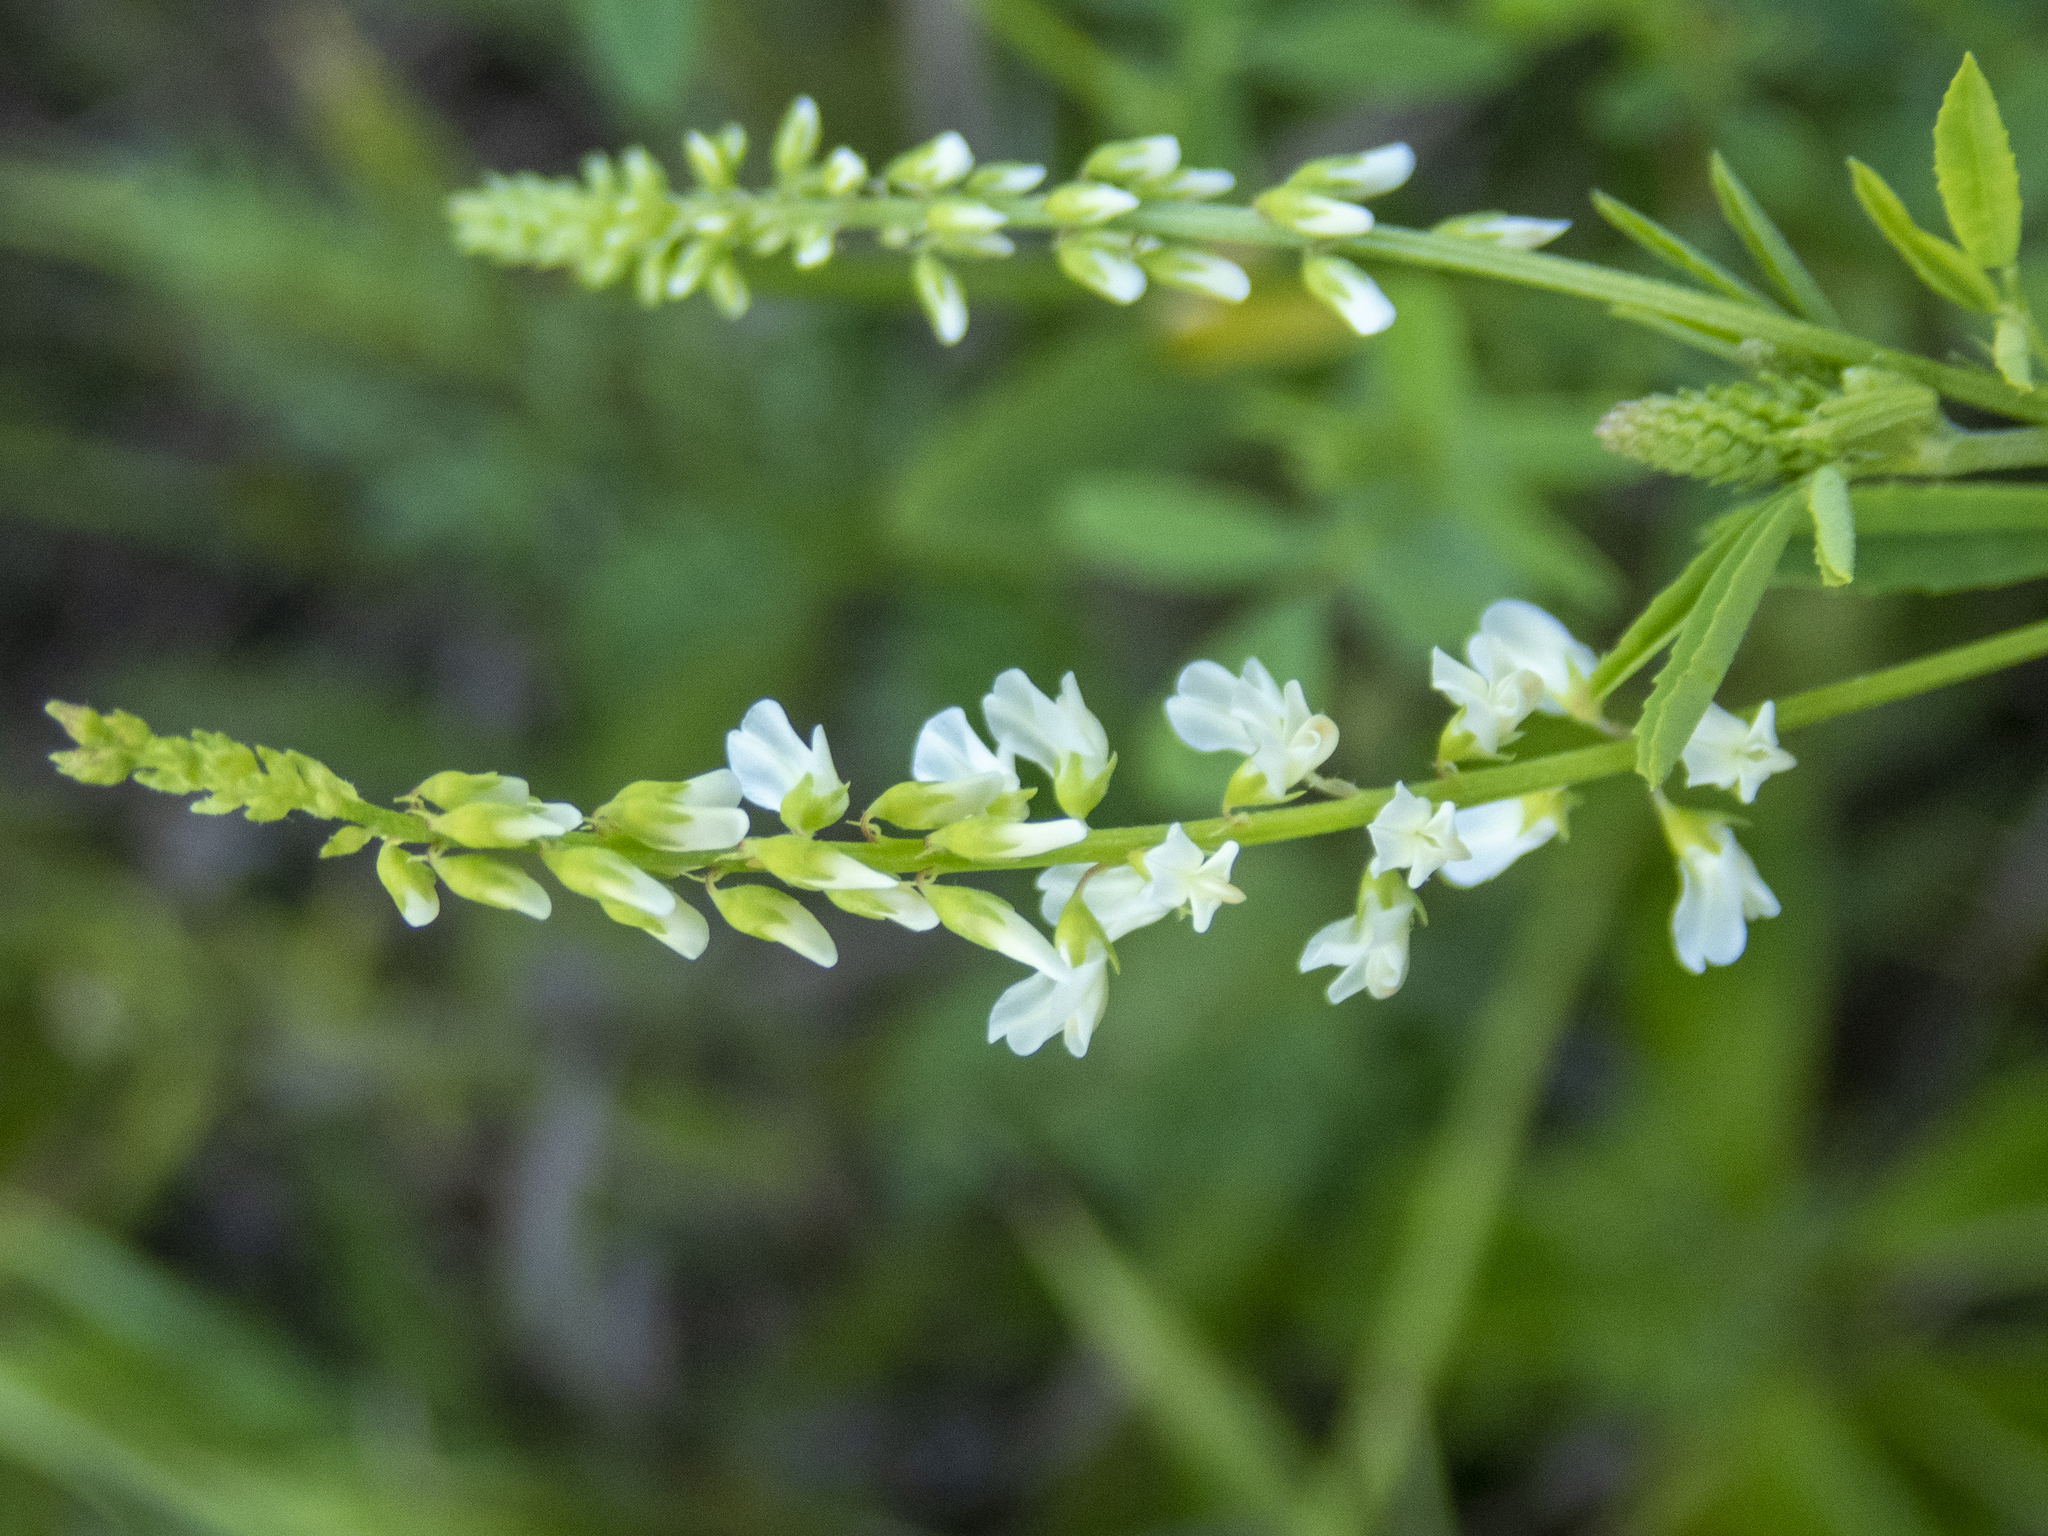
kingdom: Plantae
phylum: Tracheophyta
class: Magnoliopsida
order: Fabales
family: Fabaceae
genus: Melilotus
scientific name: Melilotus albus
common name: White melilot
